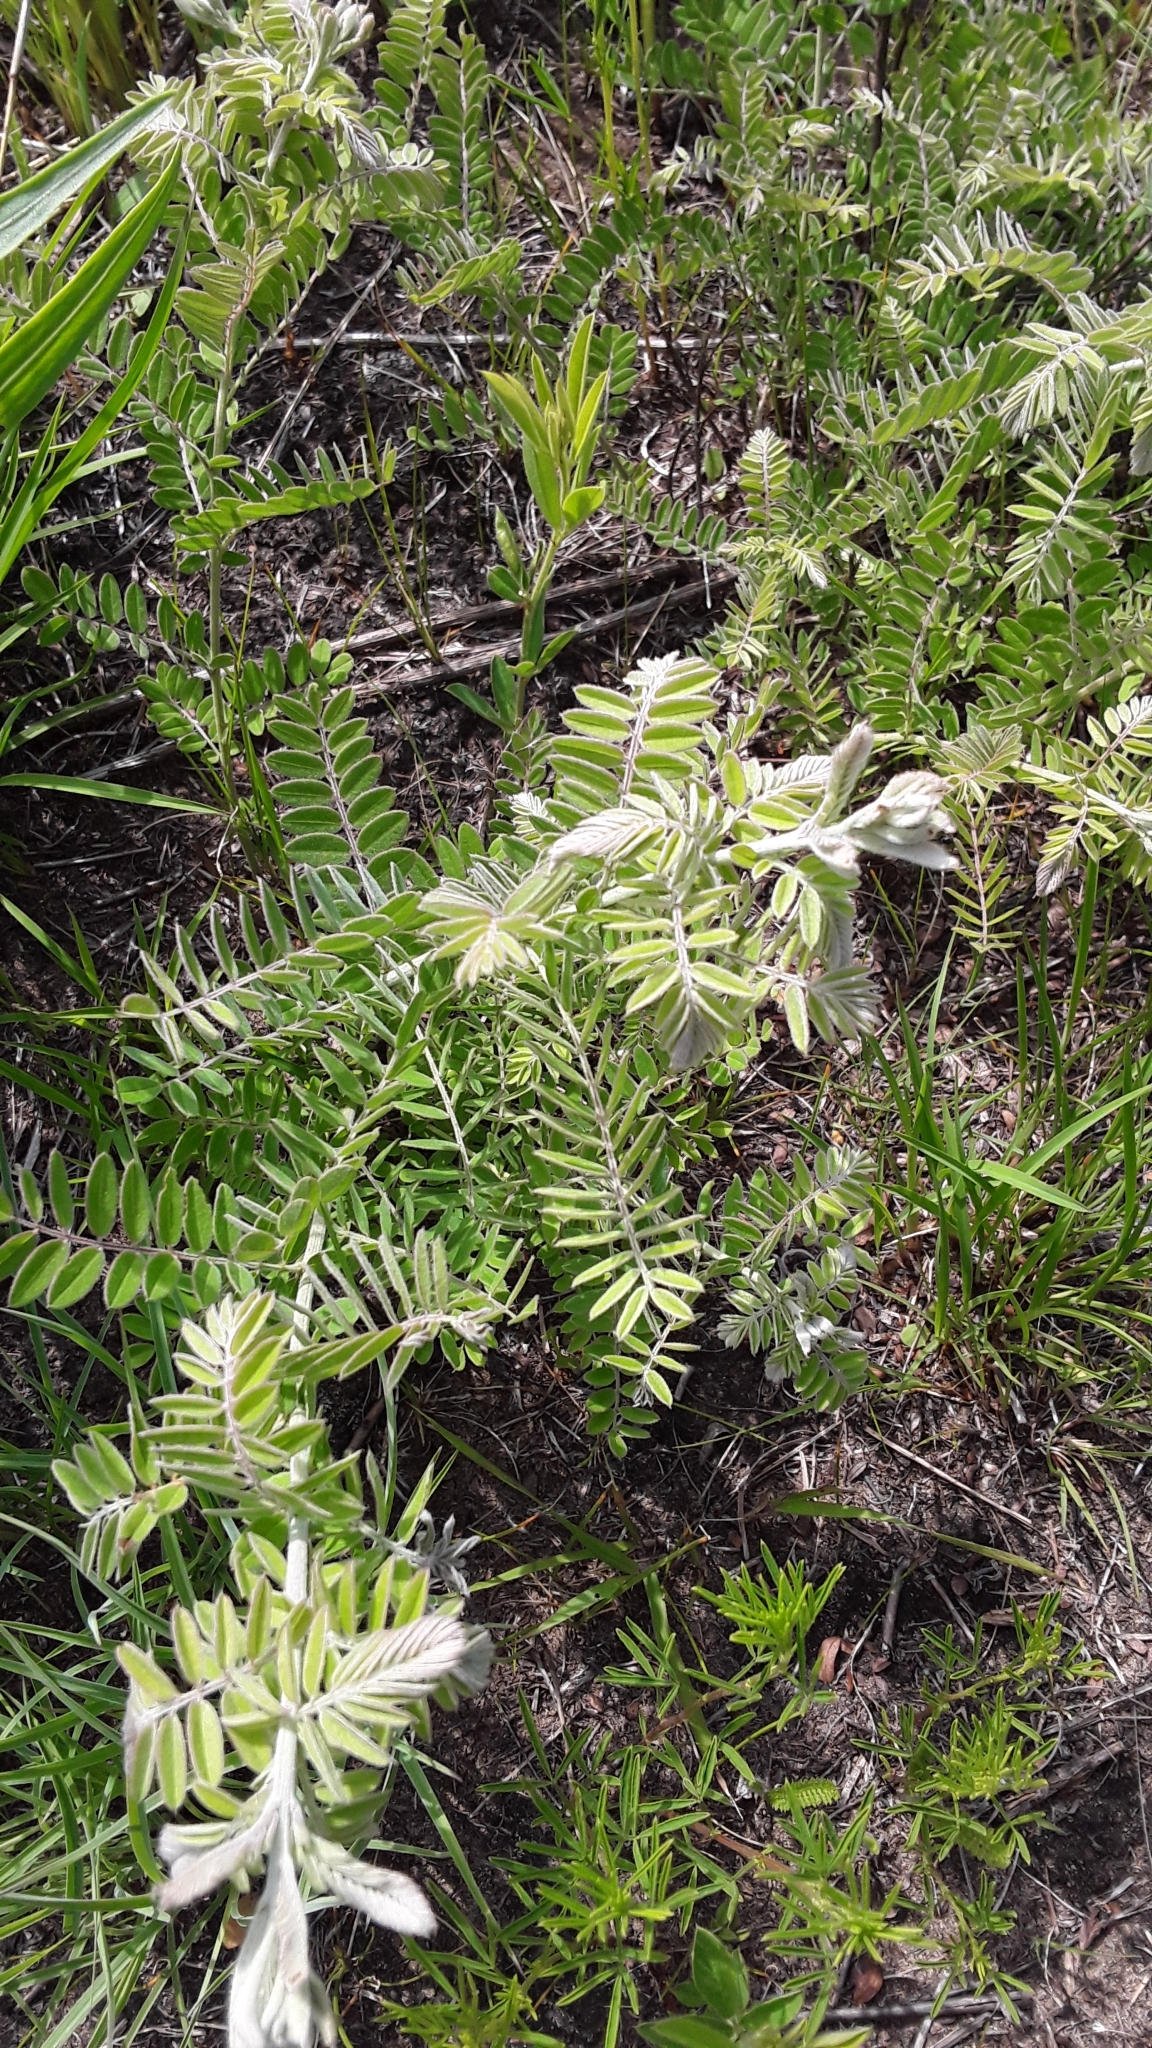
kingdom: Plantae
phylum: Tracheophyta
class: Magnoliopsida
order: Fabales
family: Fabaceae
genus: Amorpha
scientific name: Amorpha canescens
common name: Leadplant
